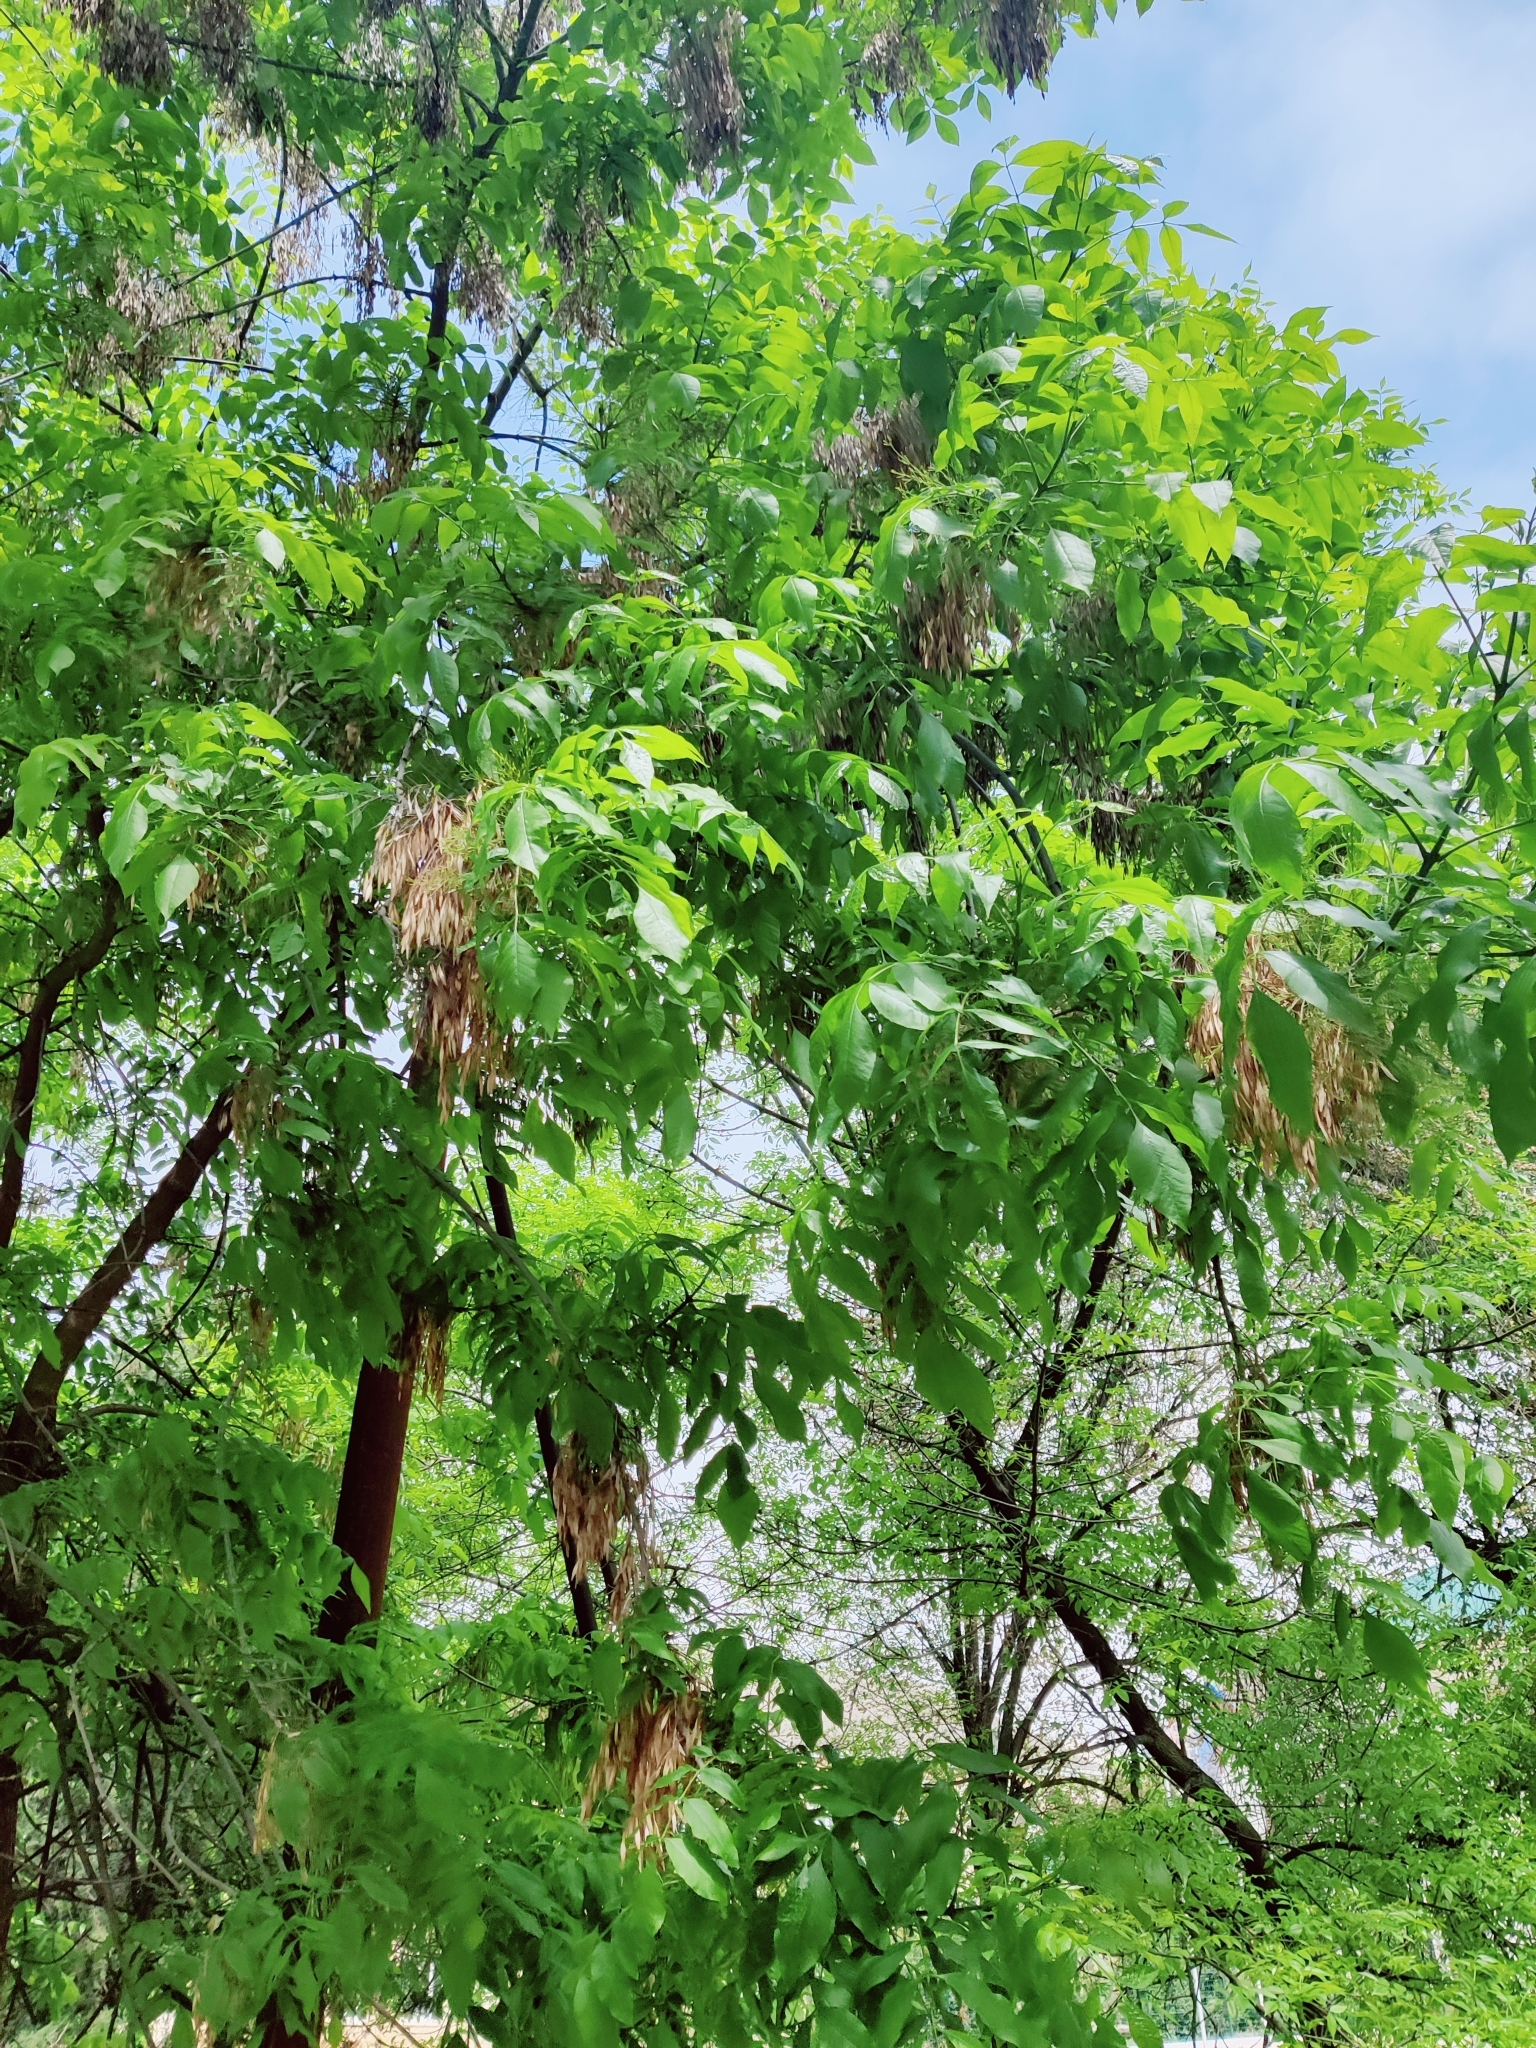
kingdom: Plantae
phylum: Tracheophyta
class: Magnoliopsida
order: Lamiales
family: Oleaceae
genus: Fraxinus
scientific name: Fraxinus excelsior
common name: European ash
